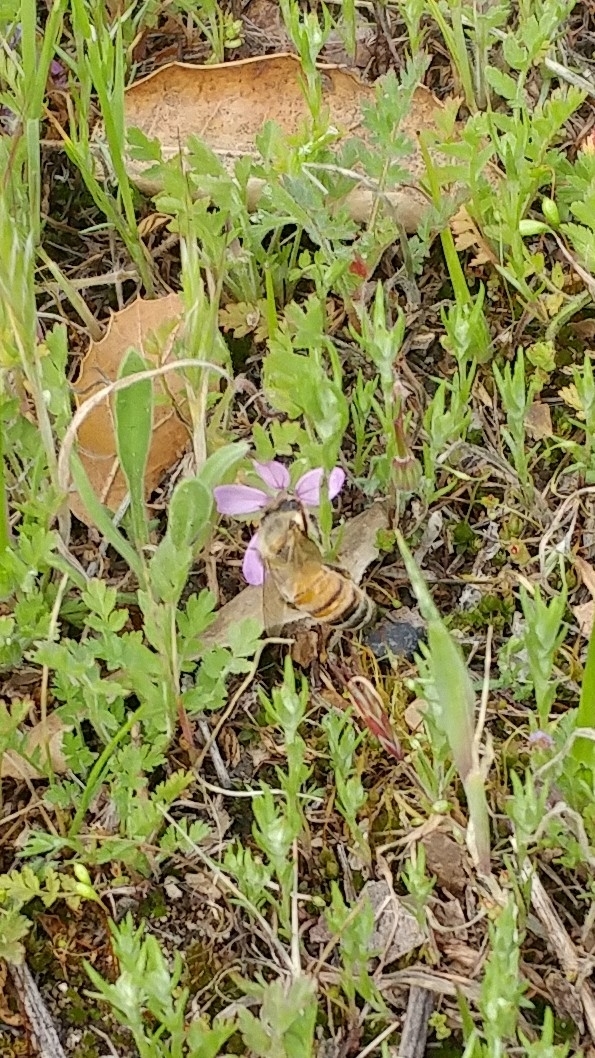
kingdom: Animalia
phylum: Arthropoda
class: Insecta
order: Hymenoptera
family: Apidae
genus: Apis
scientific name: Apis mellifera
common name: Honey bee
